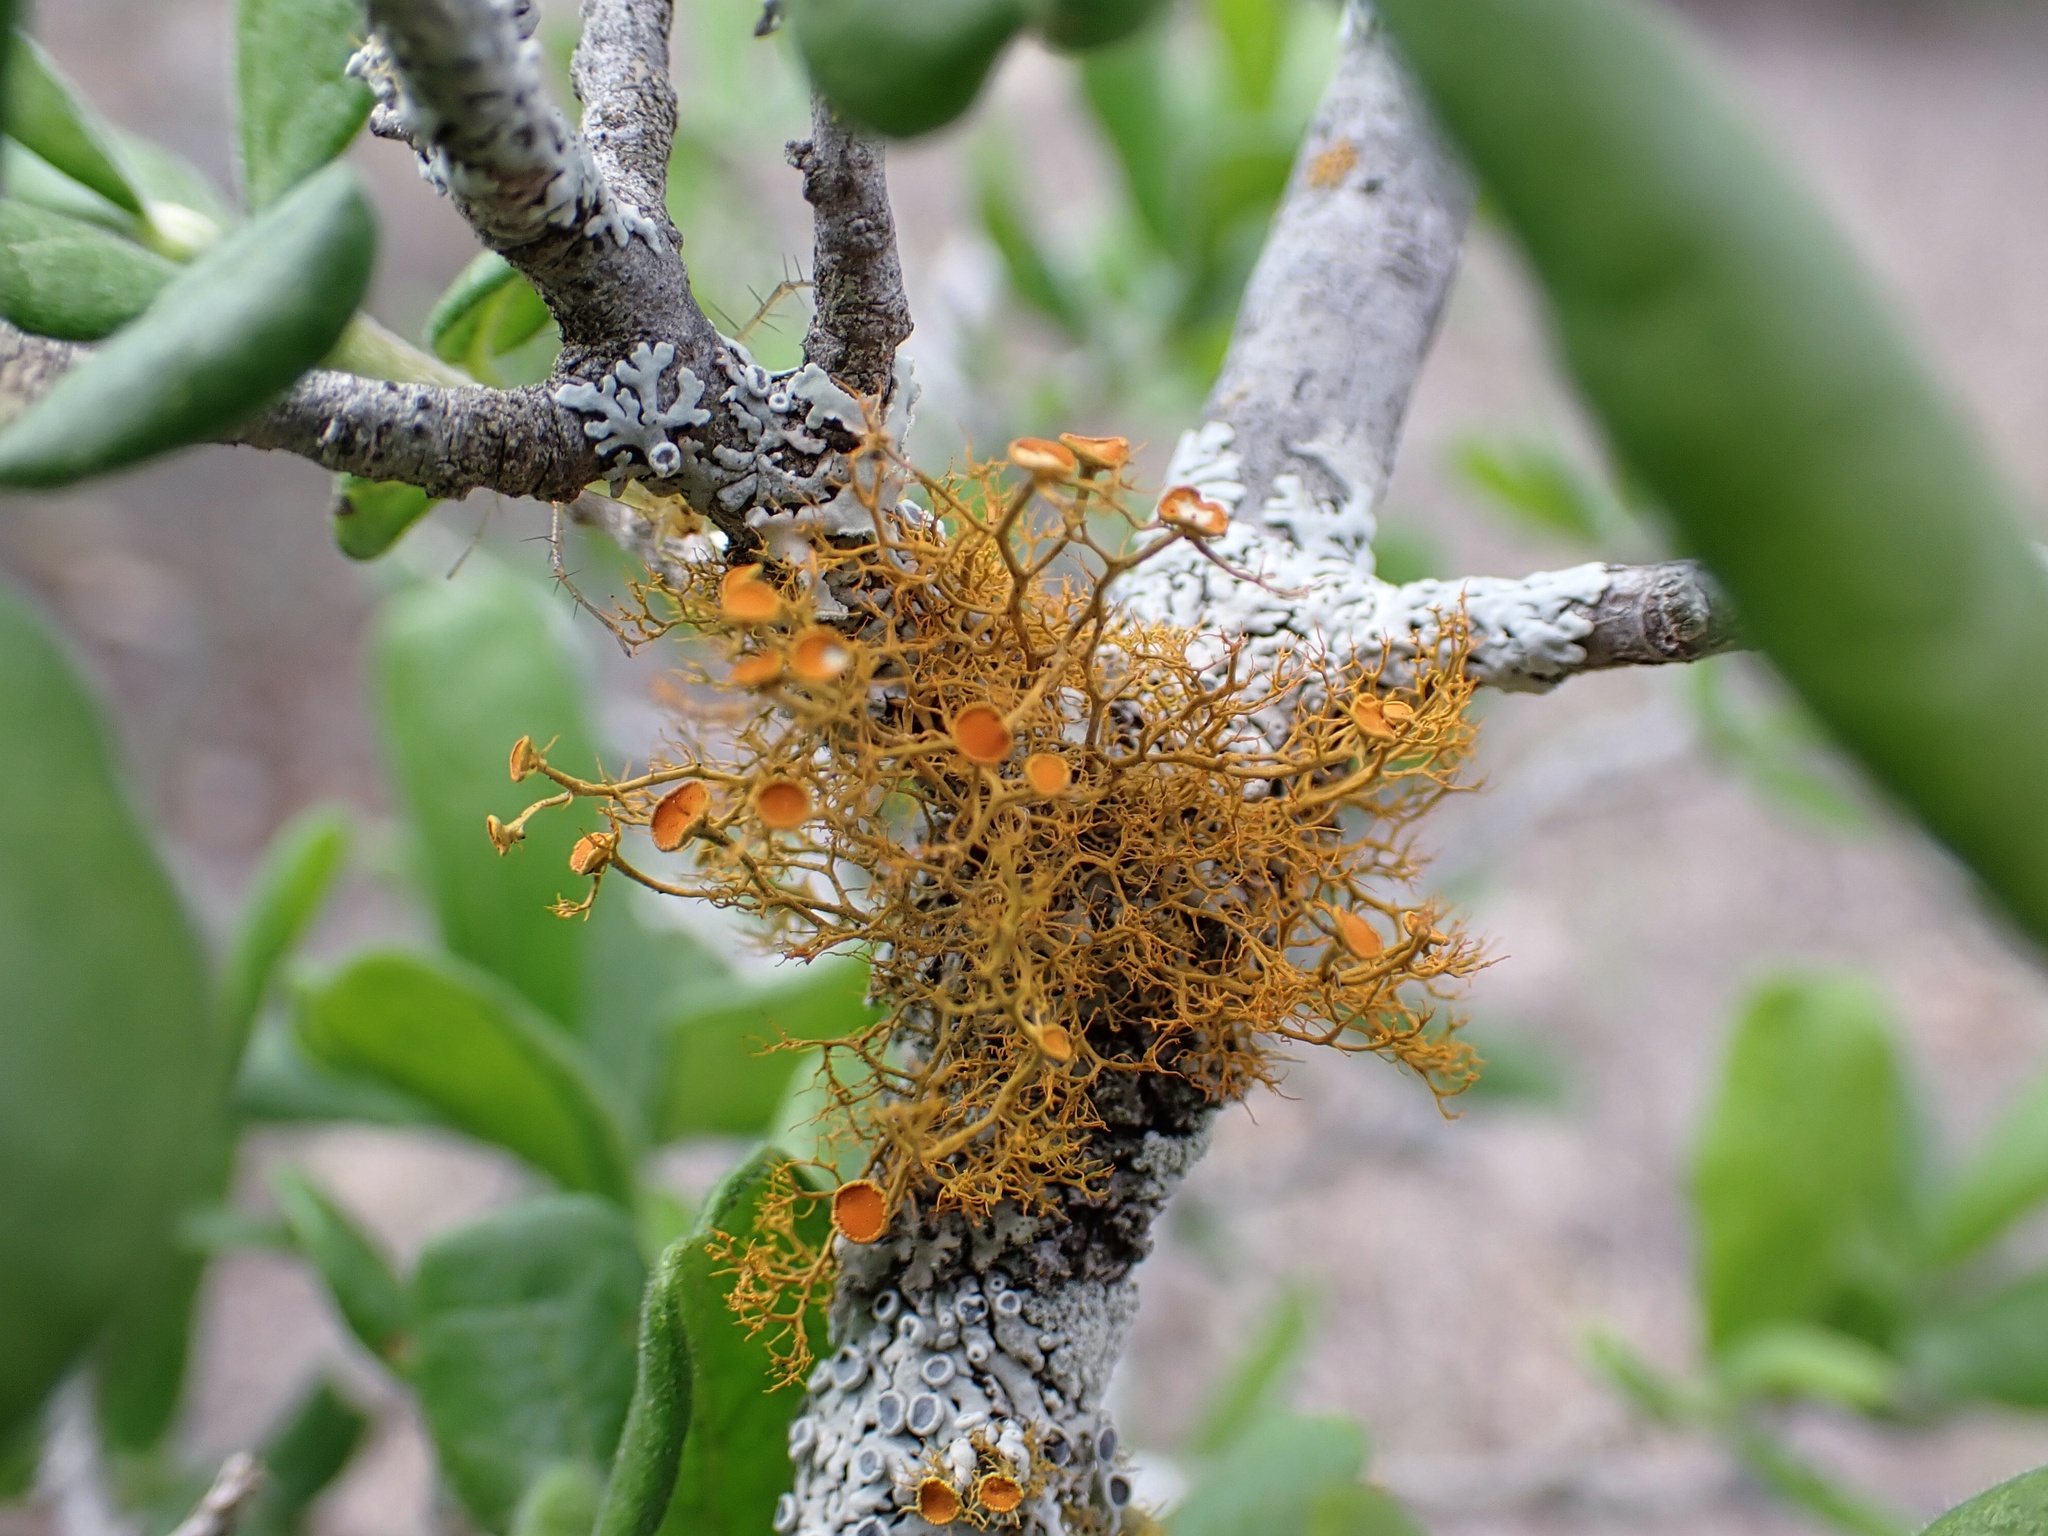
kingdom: Fungi
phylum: Ascomycota
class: Lecanoromycetes
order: Teloschistales
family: Teloschistaceae
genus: Teloschistes
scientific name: Teloschistes exilis
